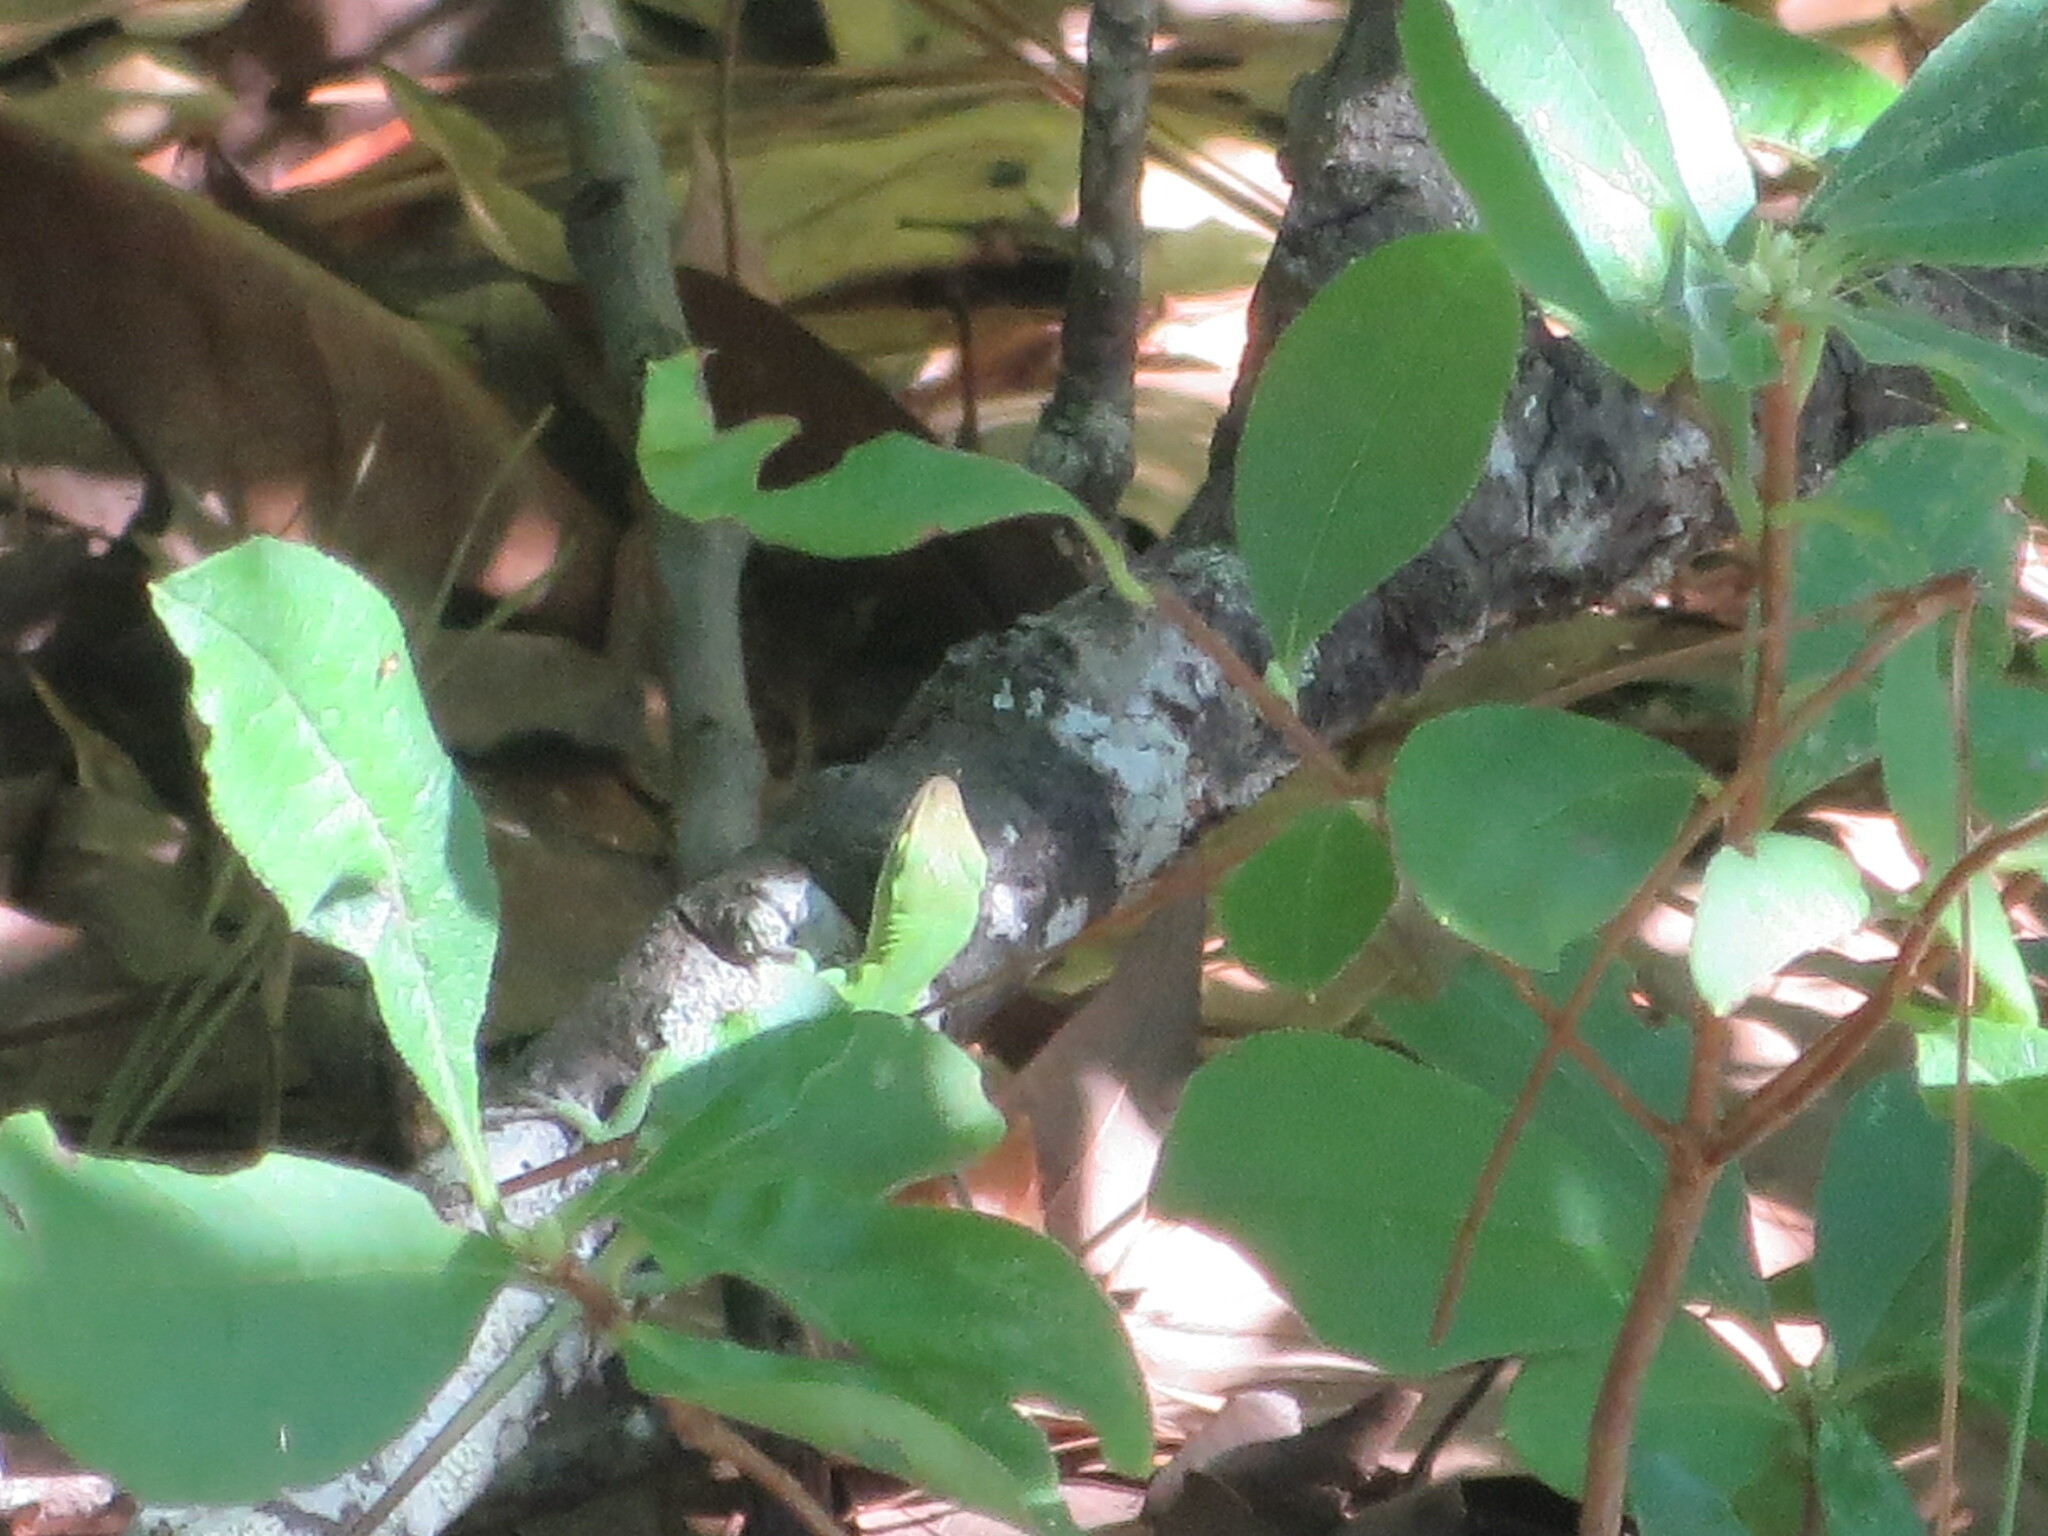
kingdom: Animalia
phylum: Chordata
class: Squamata
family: Dactyloidae
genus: Anolis
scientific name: Anolis carolinensis
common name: Green anole
